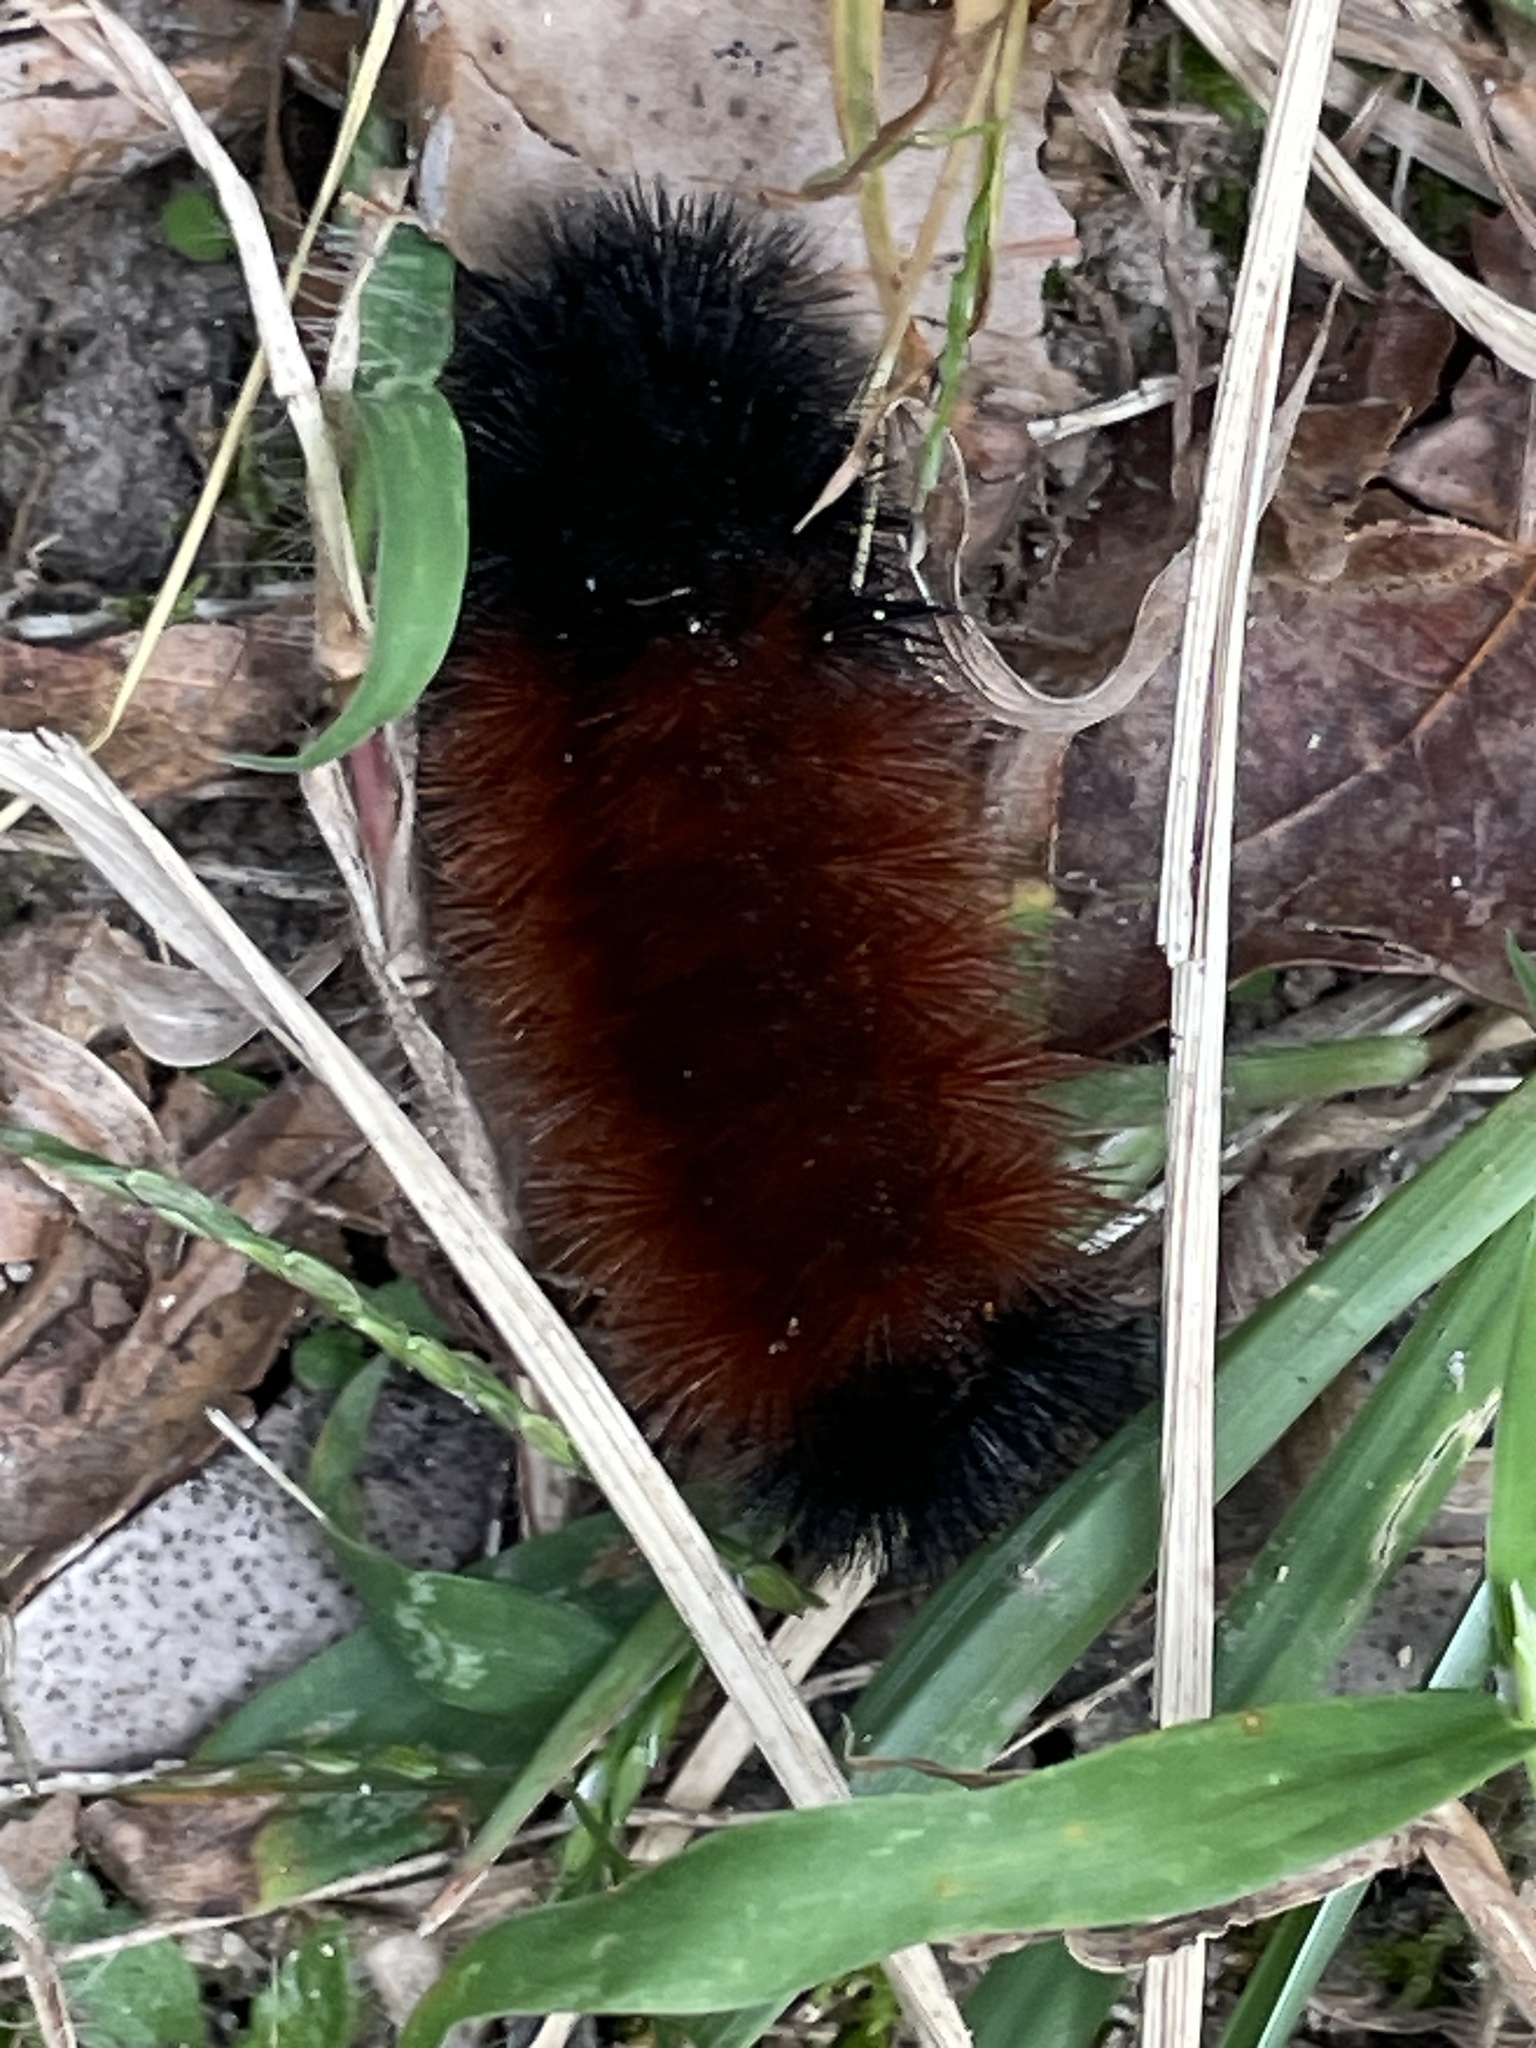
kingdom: Animalia
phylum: Arthropoda
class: Insecta
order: Lepidoptera
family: Erebidae
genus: Pyrrharctia
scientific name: Pyrrharctia isabella
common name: Isabella tiger moth
